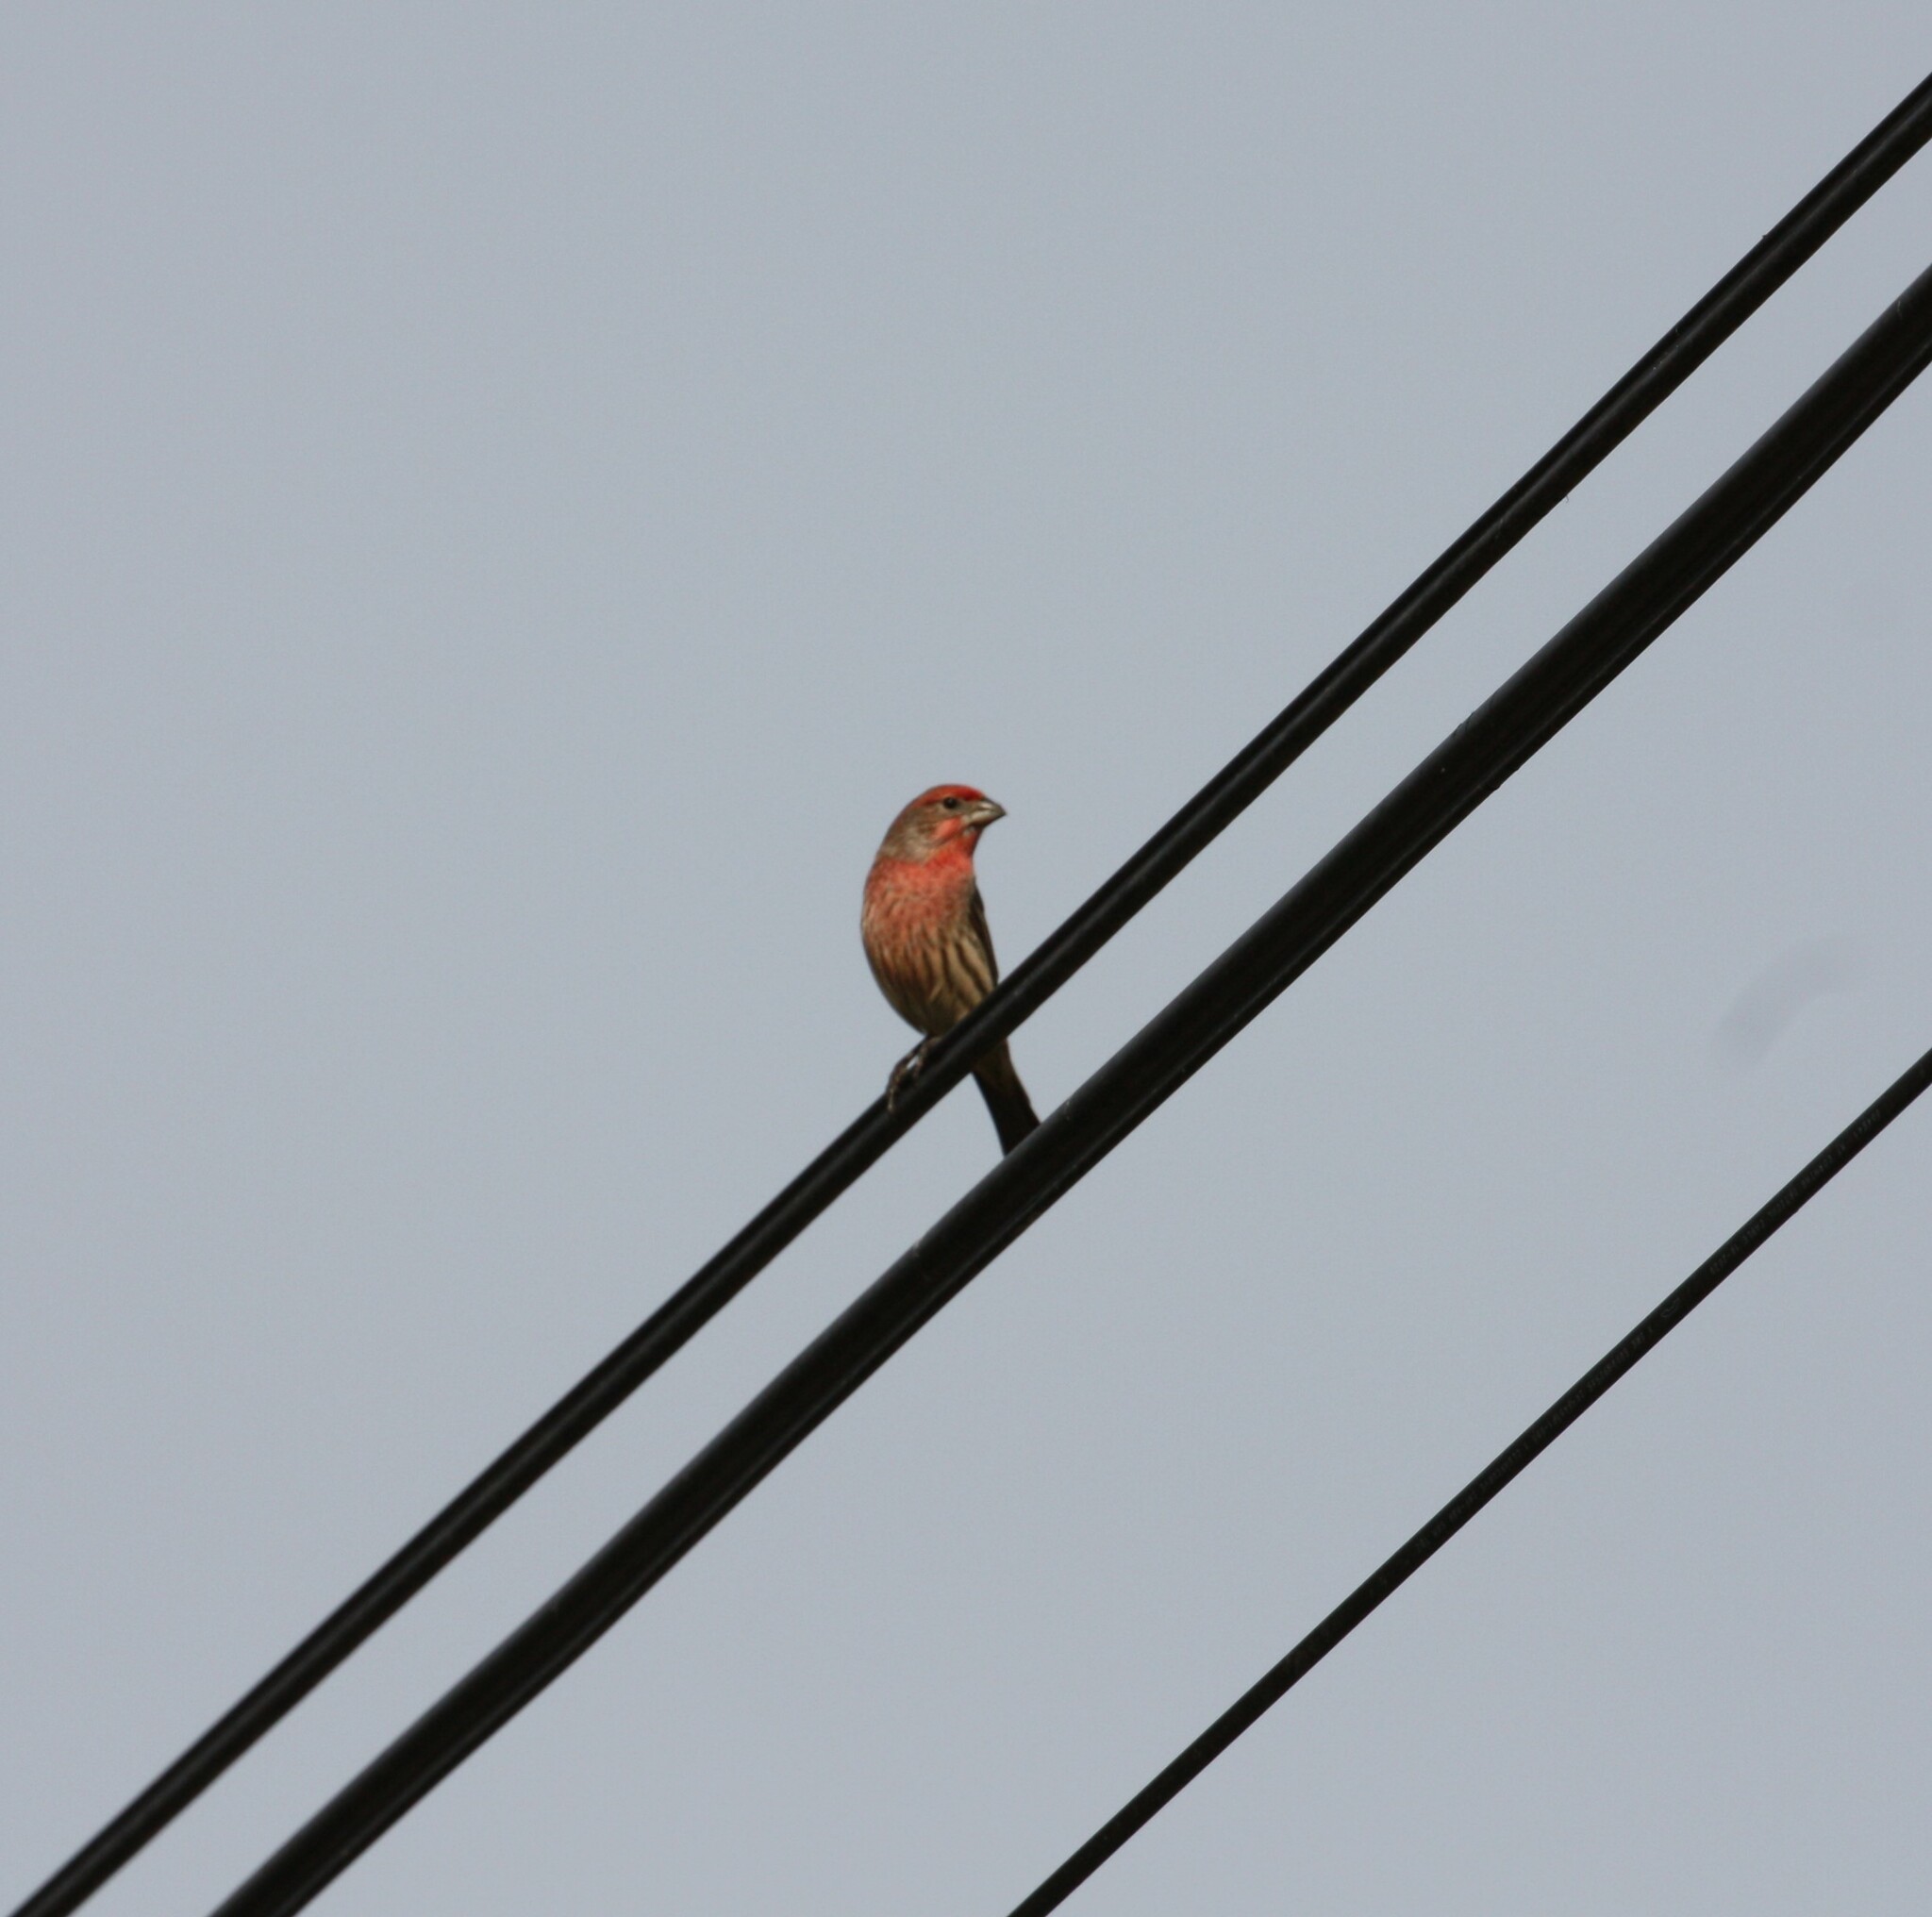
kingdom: Animalia
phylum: Chordata
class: Aves
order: Passeriformes
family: Fringillidae
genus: Haemorhous
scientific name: Haemorhous mexicanus
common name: House finch
